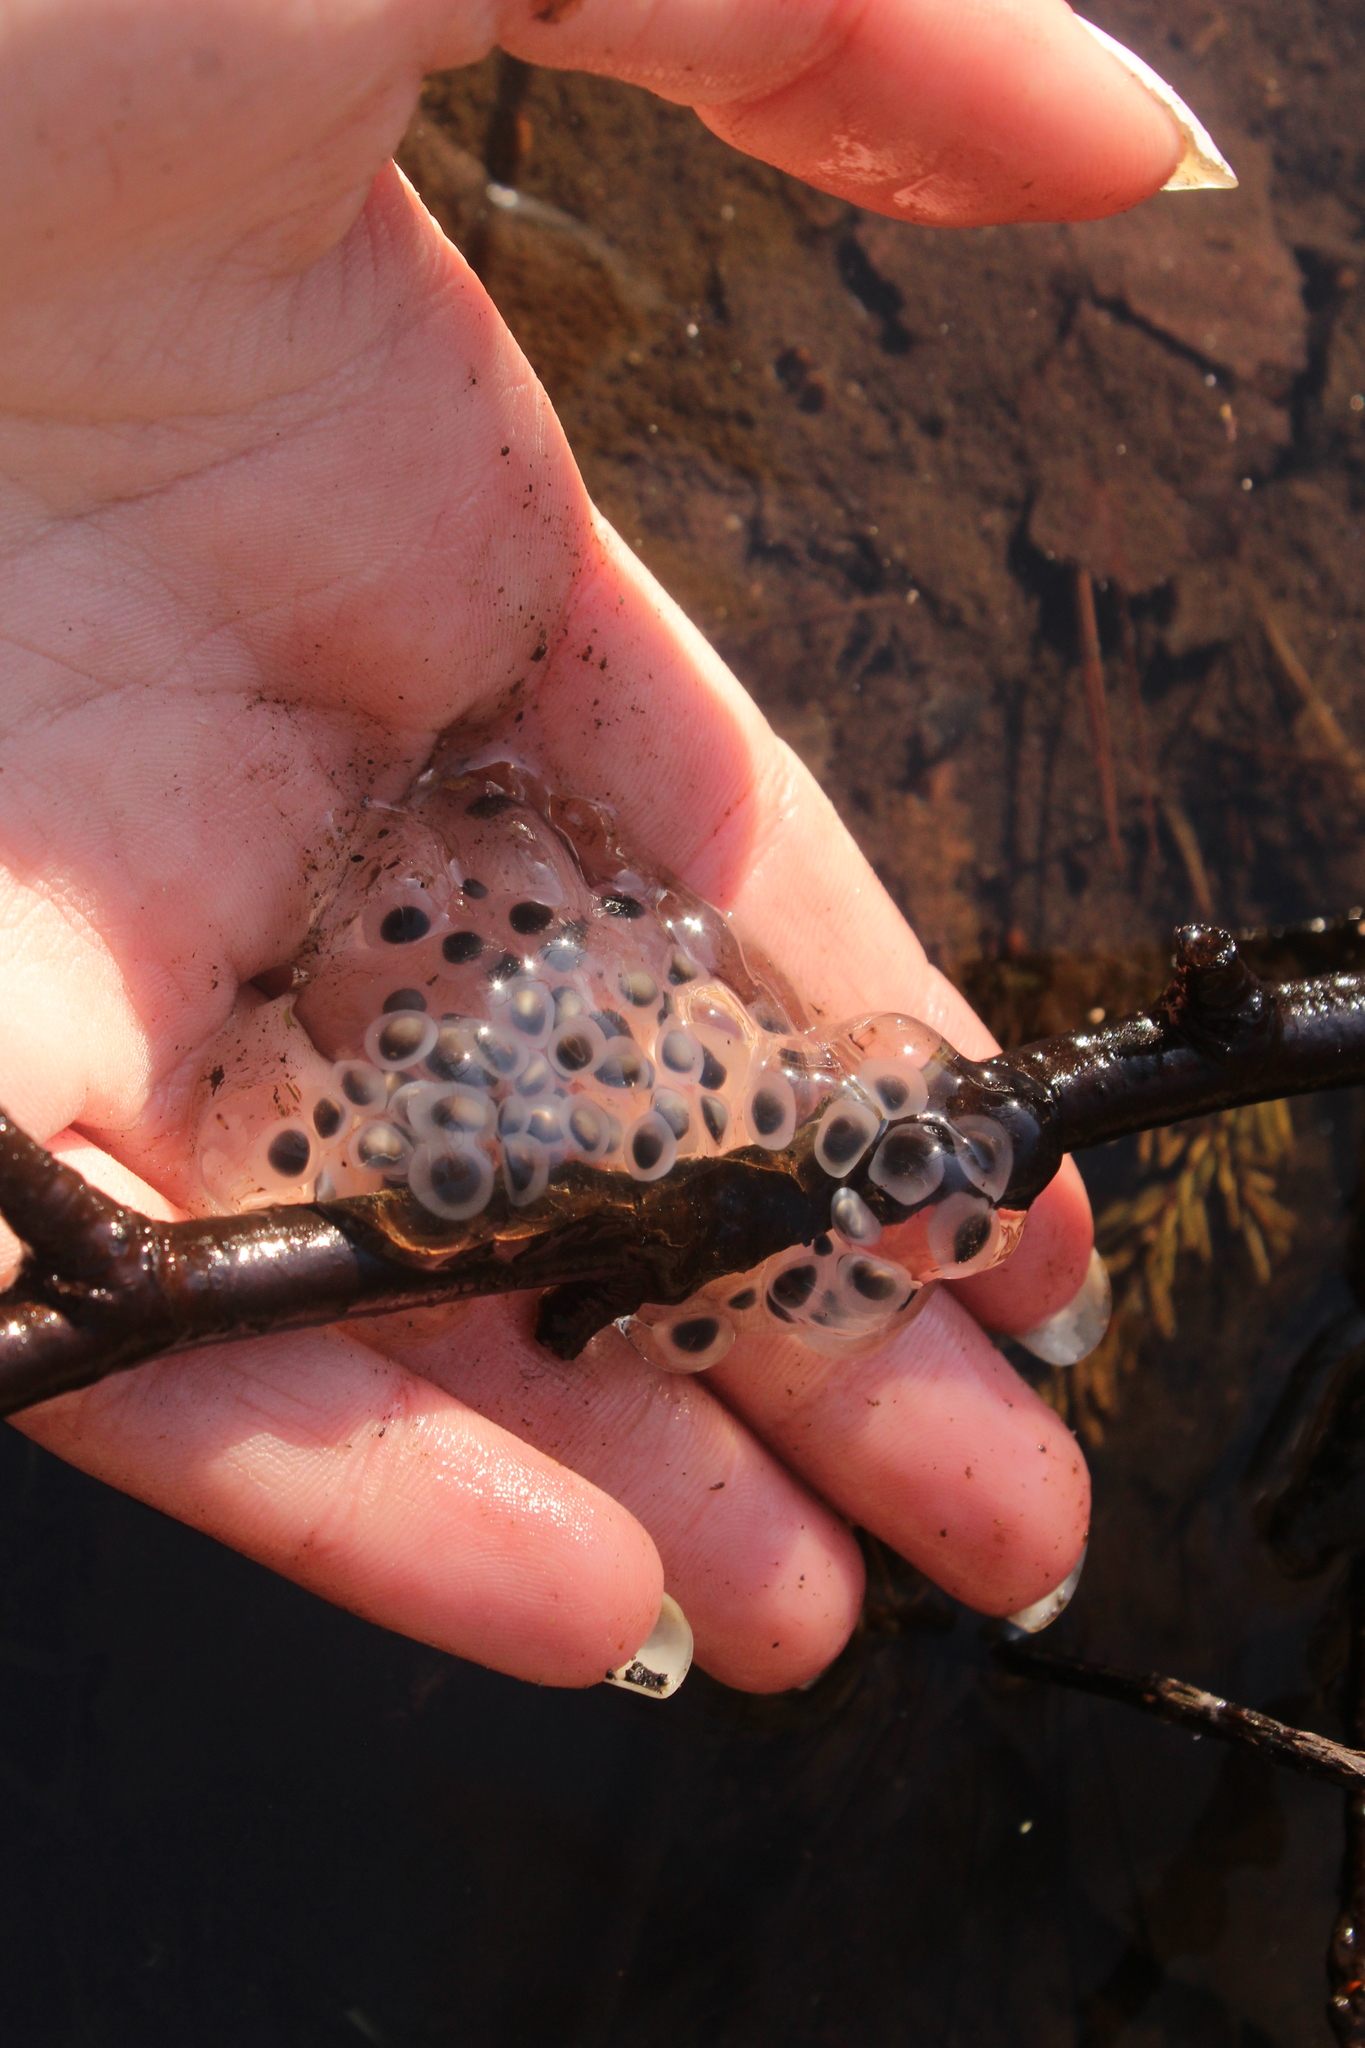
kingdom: Animalia
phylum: Chordata
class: Amphibia
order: Caudata
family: Ambystomatidae
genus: Ambystoma
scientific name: Ambystoma maculatum
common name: Spotted salamander
